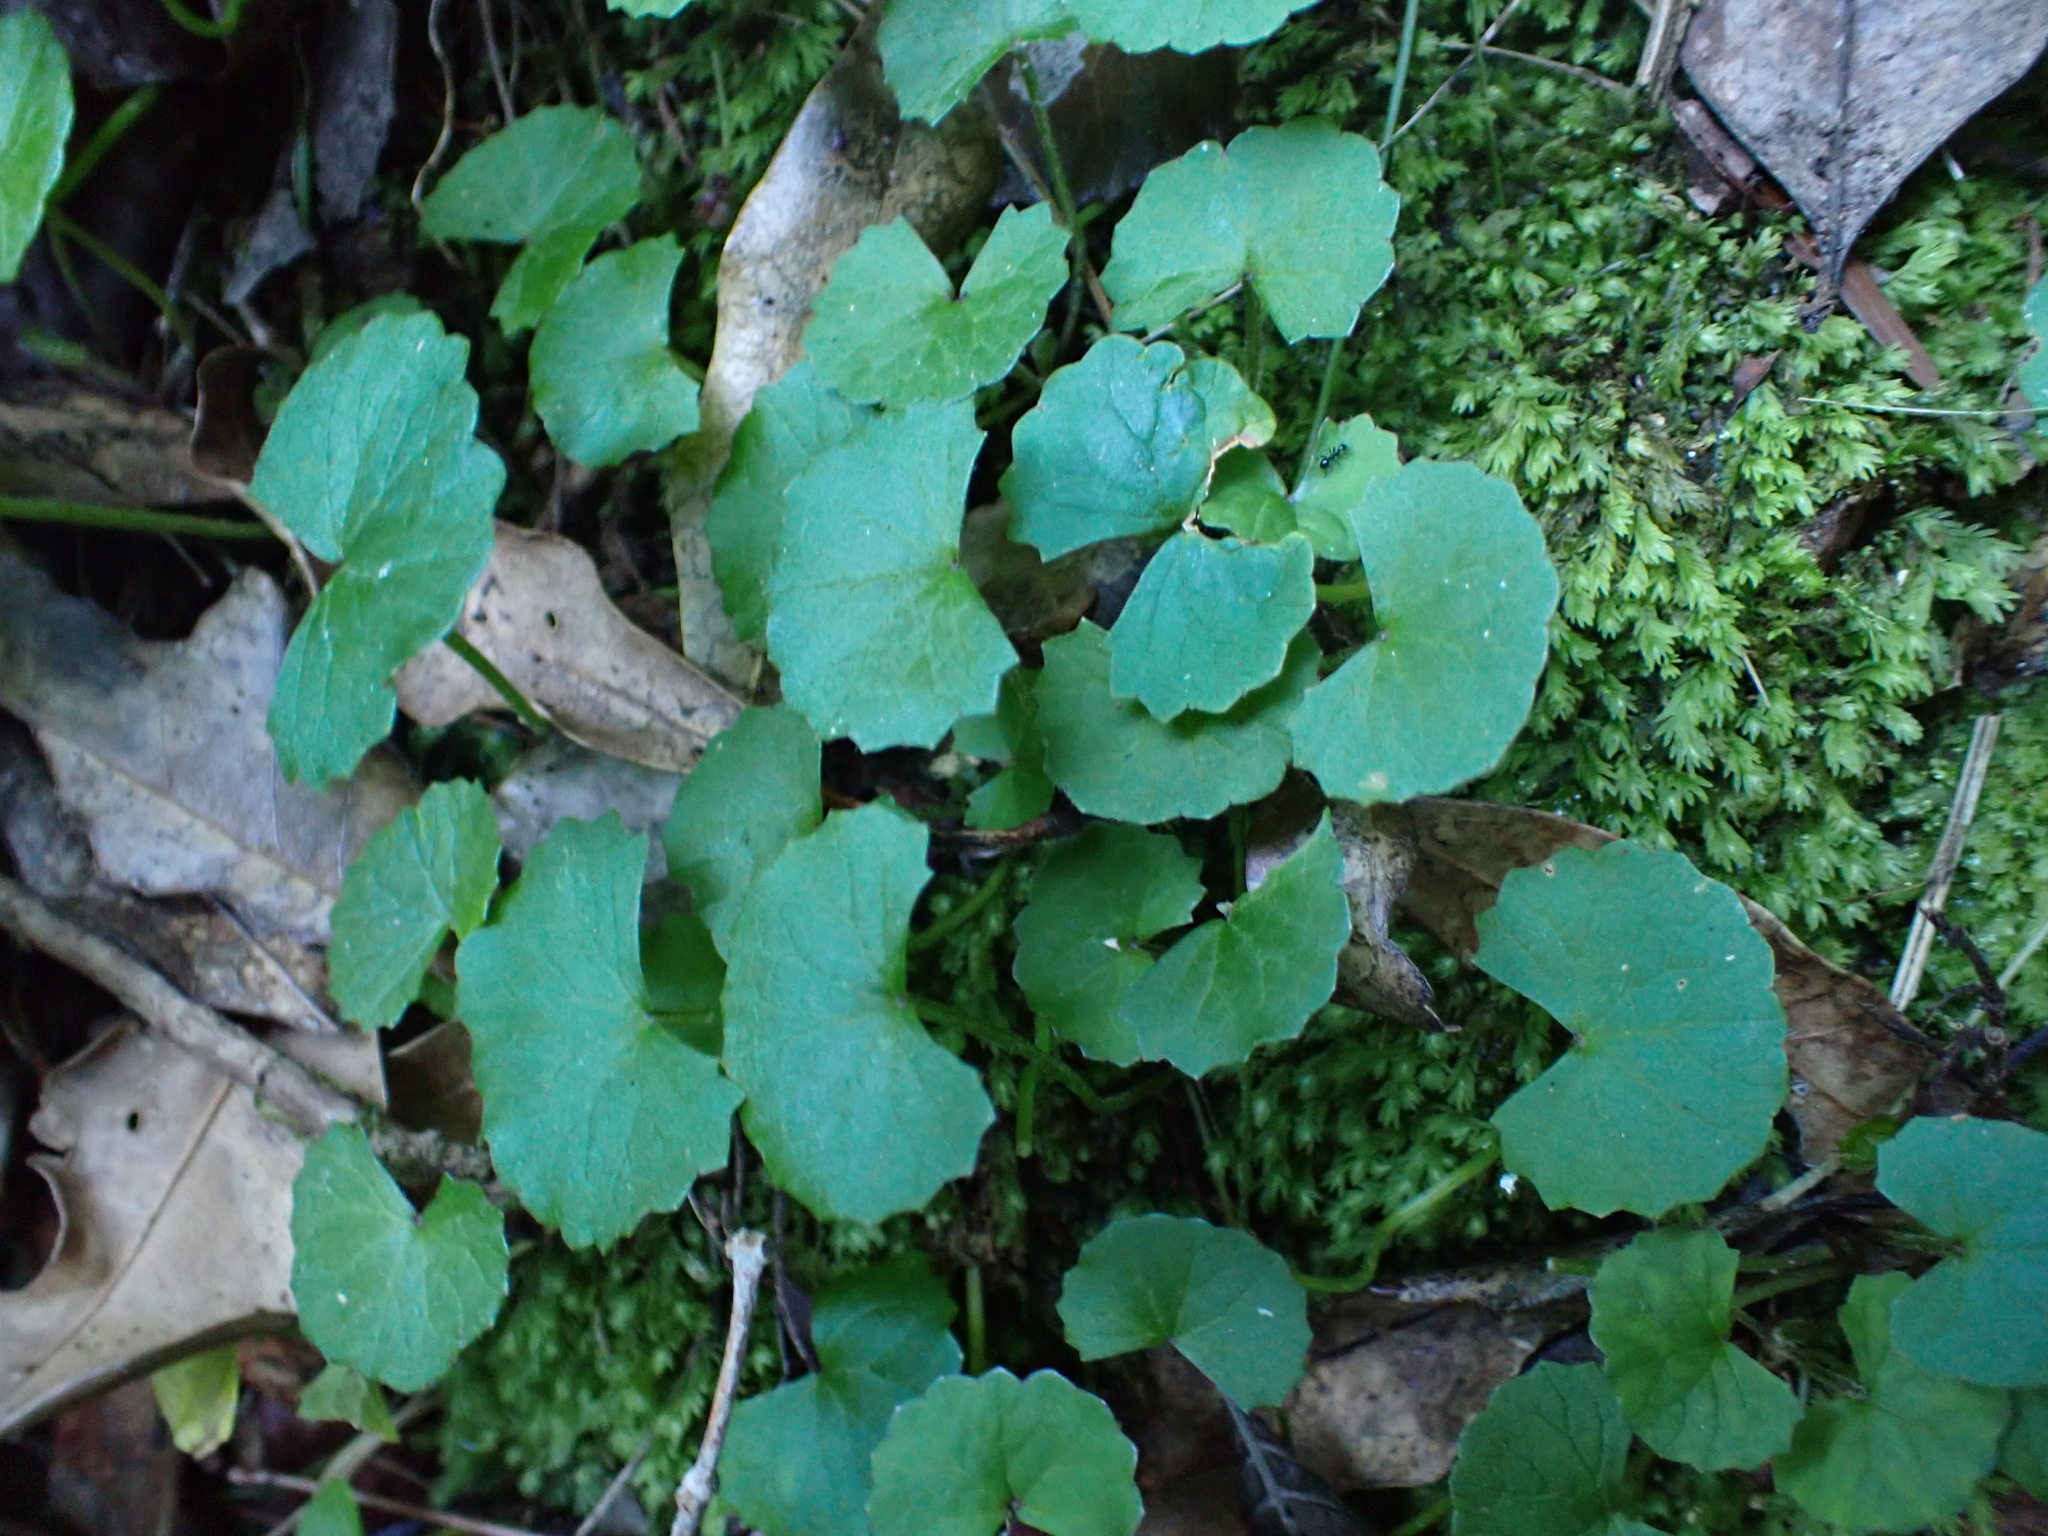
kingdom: Plantae
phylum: Tracheophyta
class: Magnoliopsida
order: Apiales
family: Apiaceae
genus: Centella
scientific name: Centella asiatica
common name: Spadeleaf
